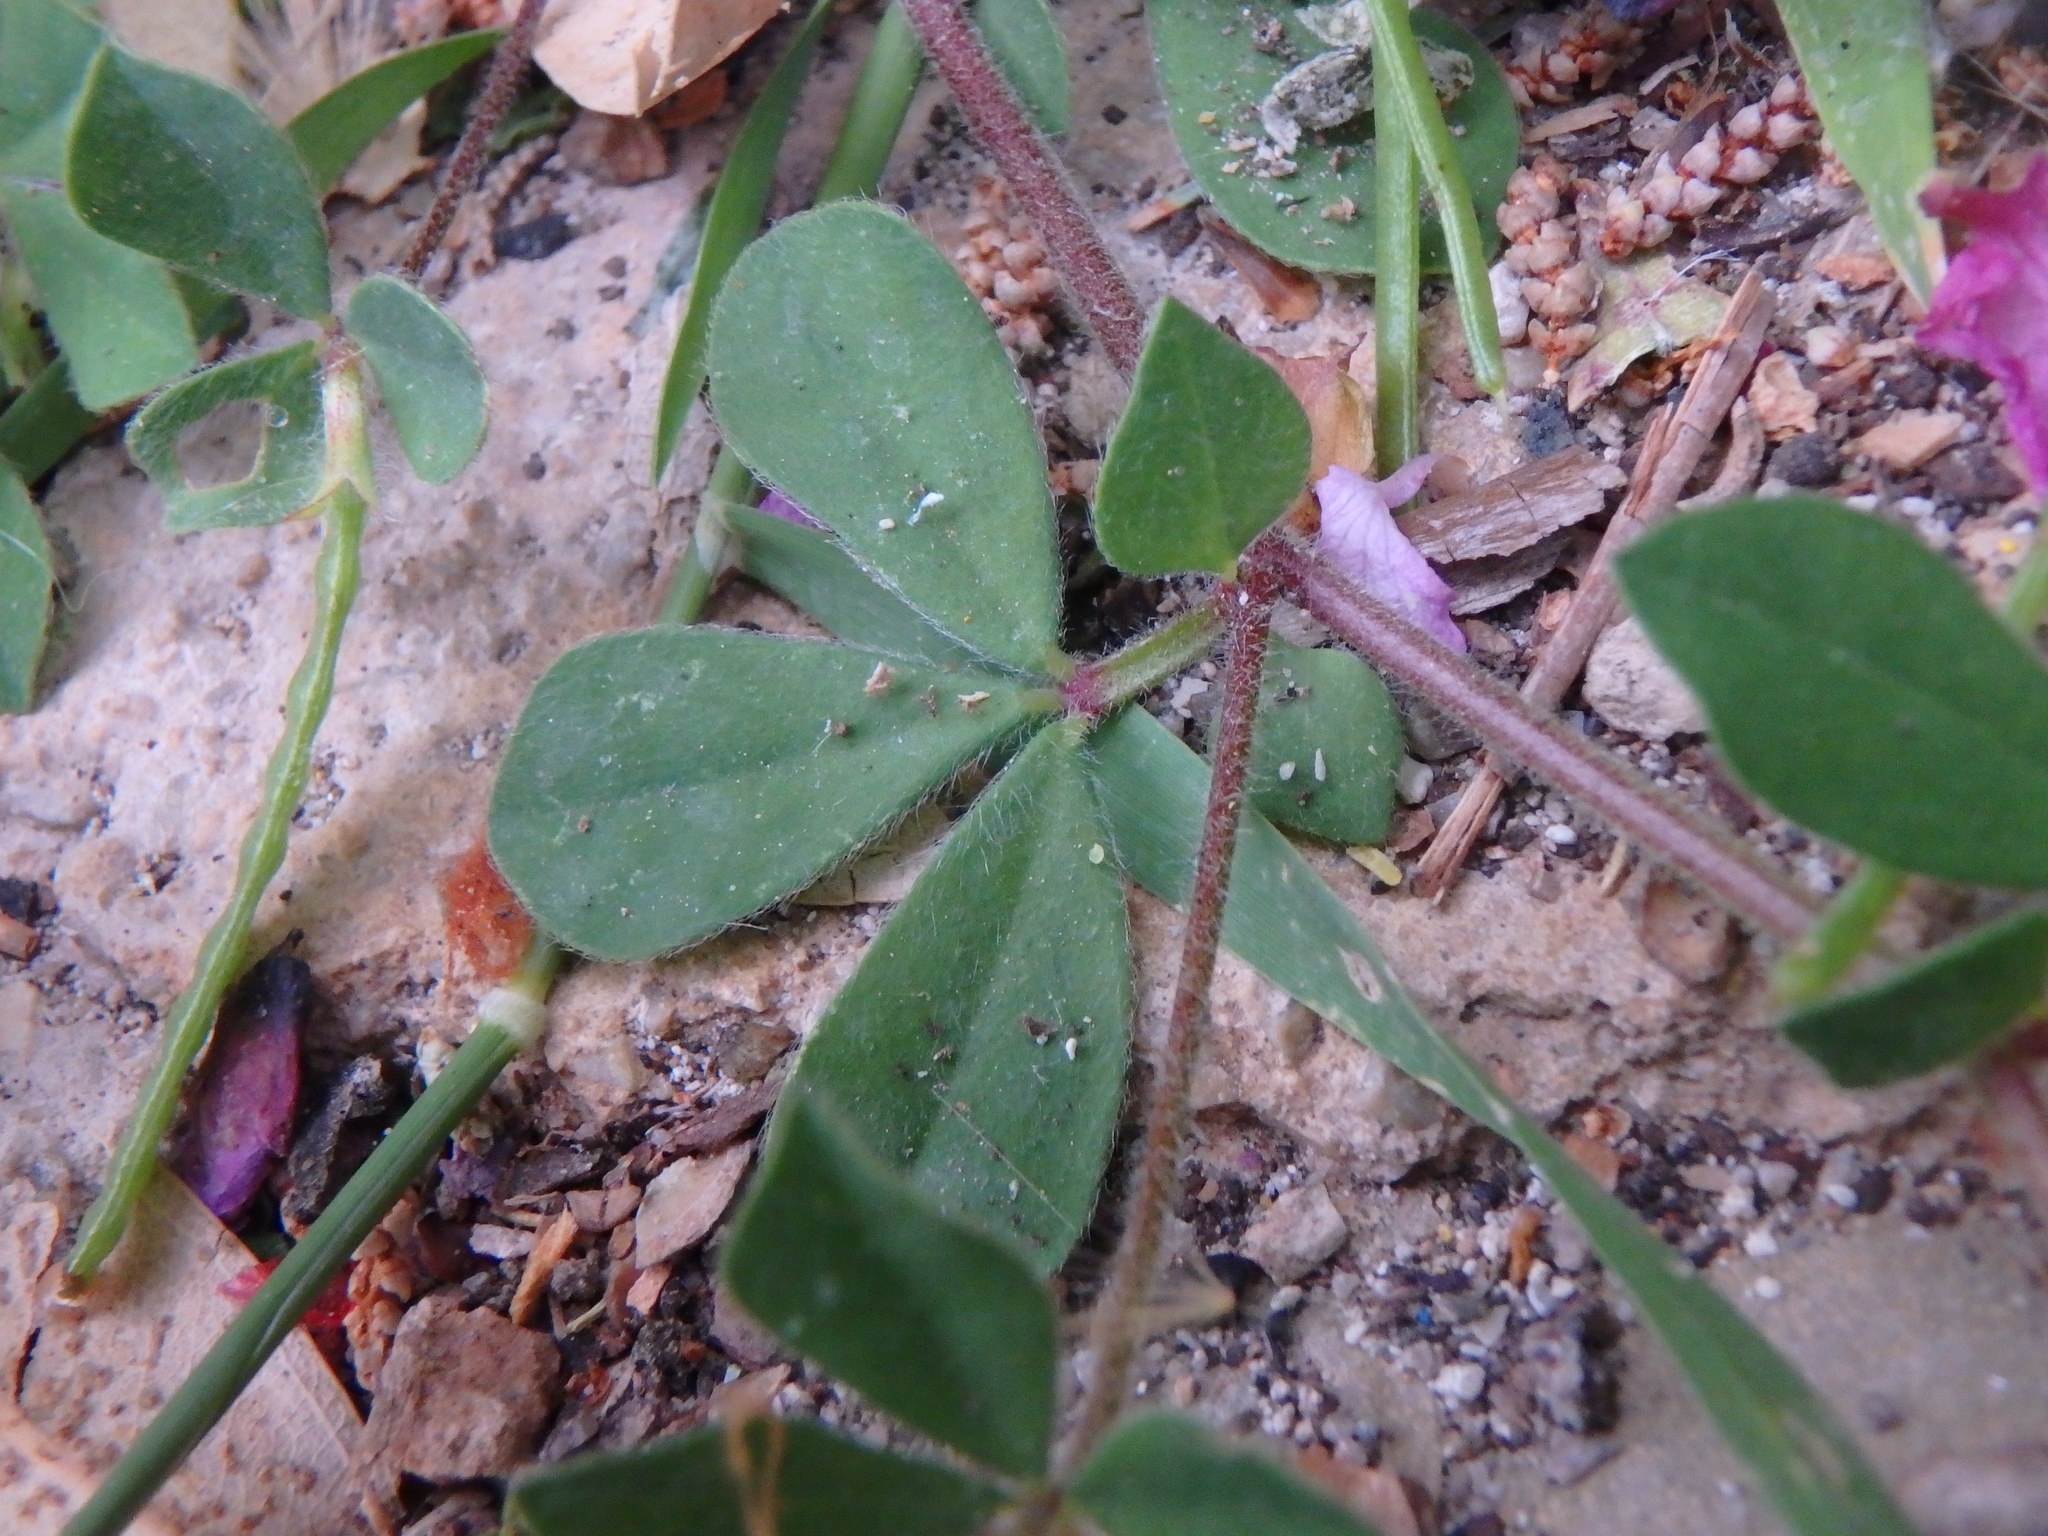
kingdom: Plantae
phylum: Tracheophyta
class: Magnoliopsida
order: Fabales
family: Fabaceae
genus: Lotus
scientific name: Lotus ornithopodioides
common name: Southern bird's-foot trefoil
